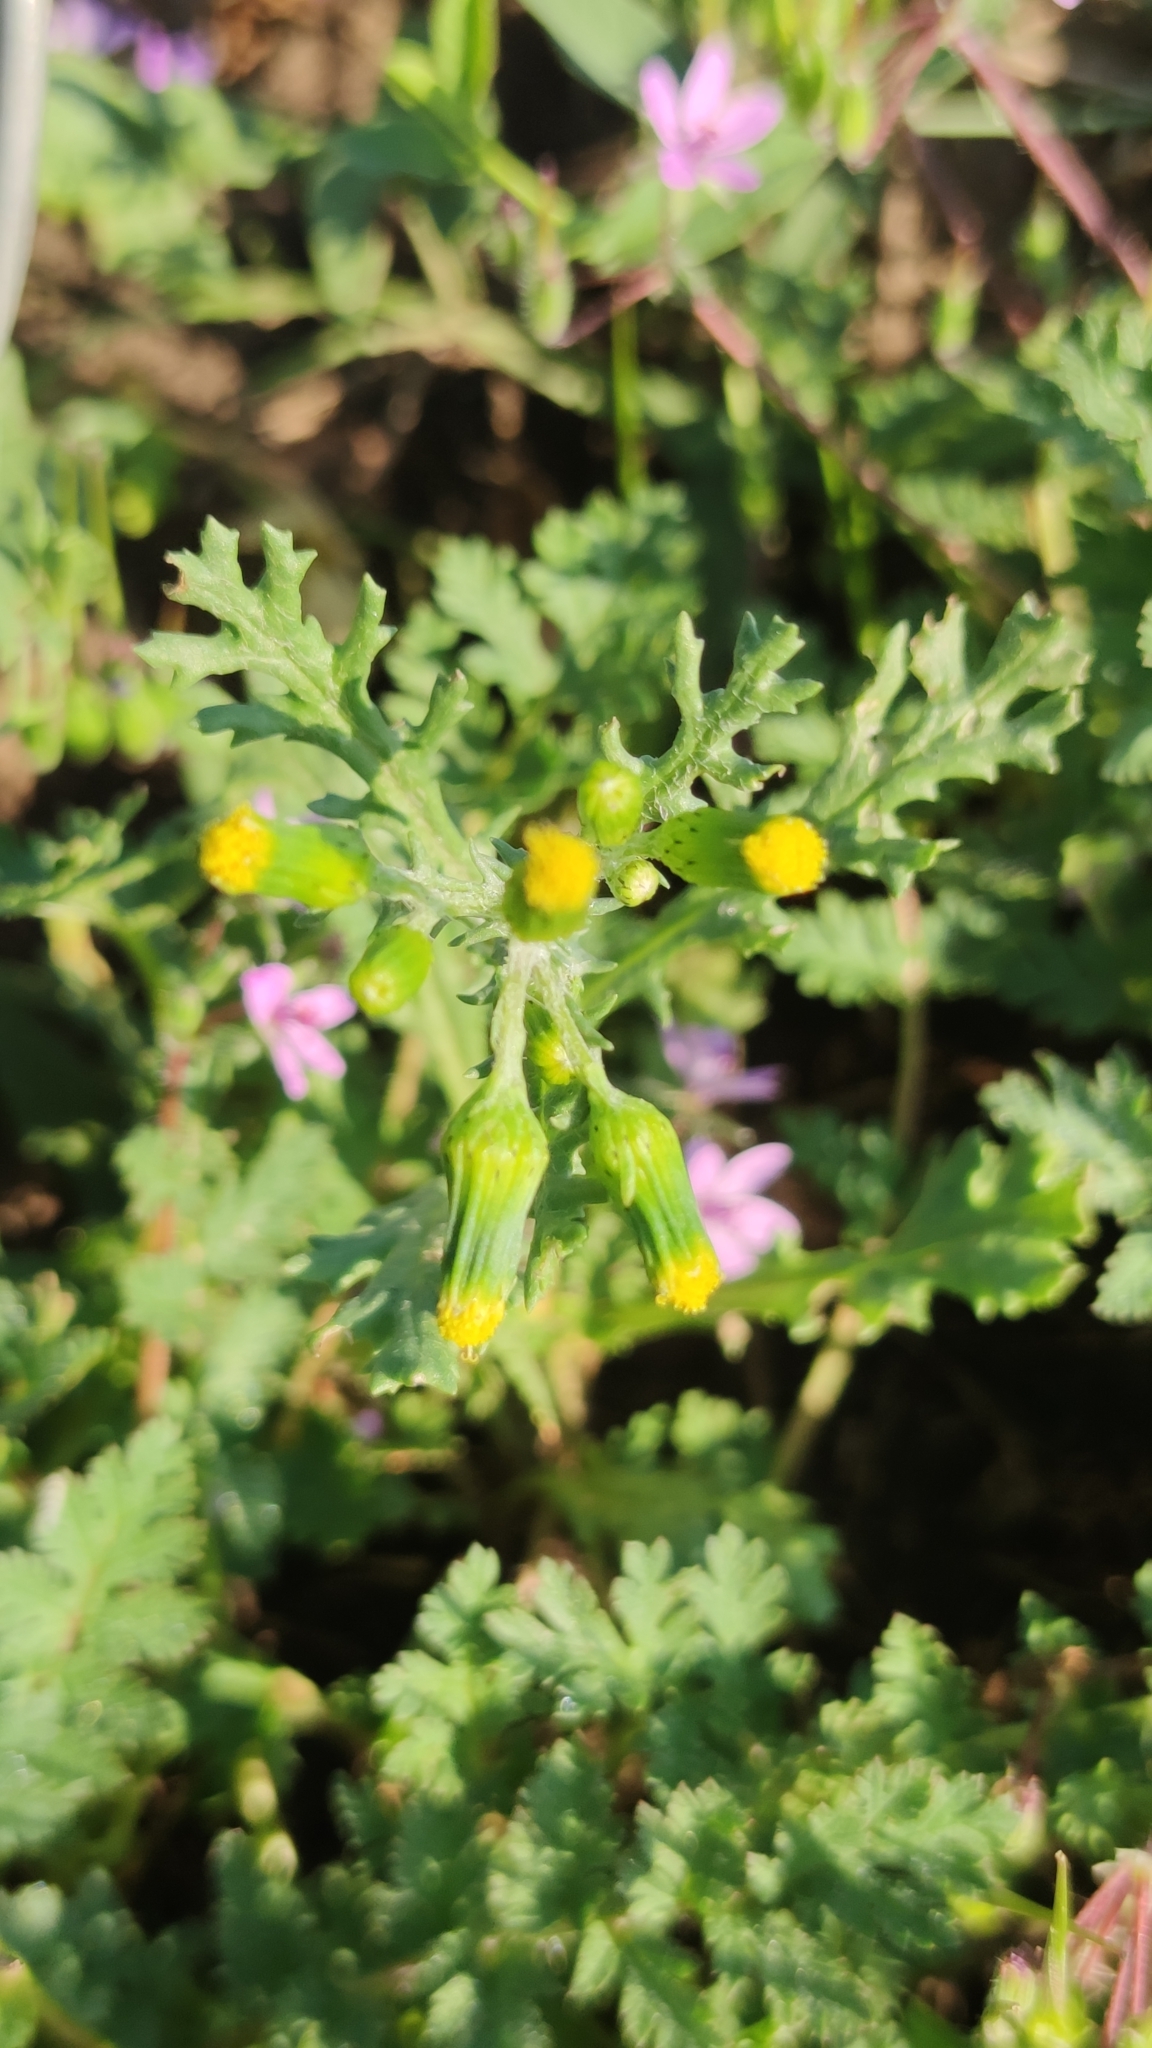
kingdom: Plantae
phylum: Tracheophyta
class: Magnoliopsida
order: Asterales
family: Asteraceae
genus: Senecio
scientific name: Senecio vulgaris
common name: Old-man-in-the-spring
